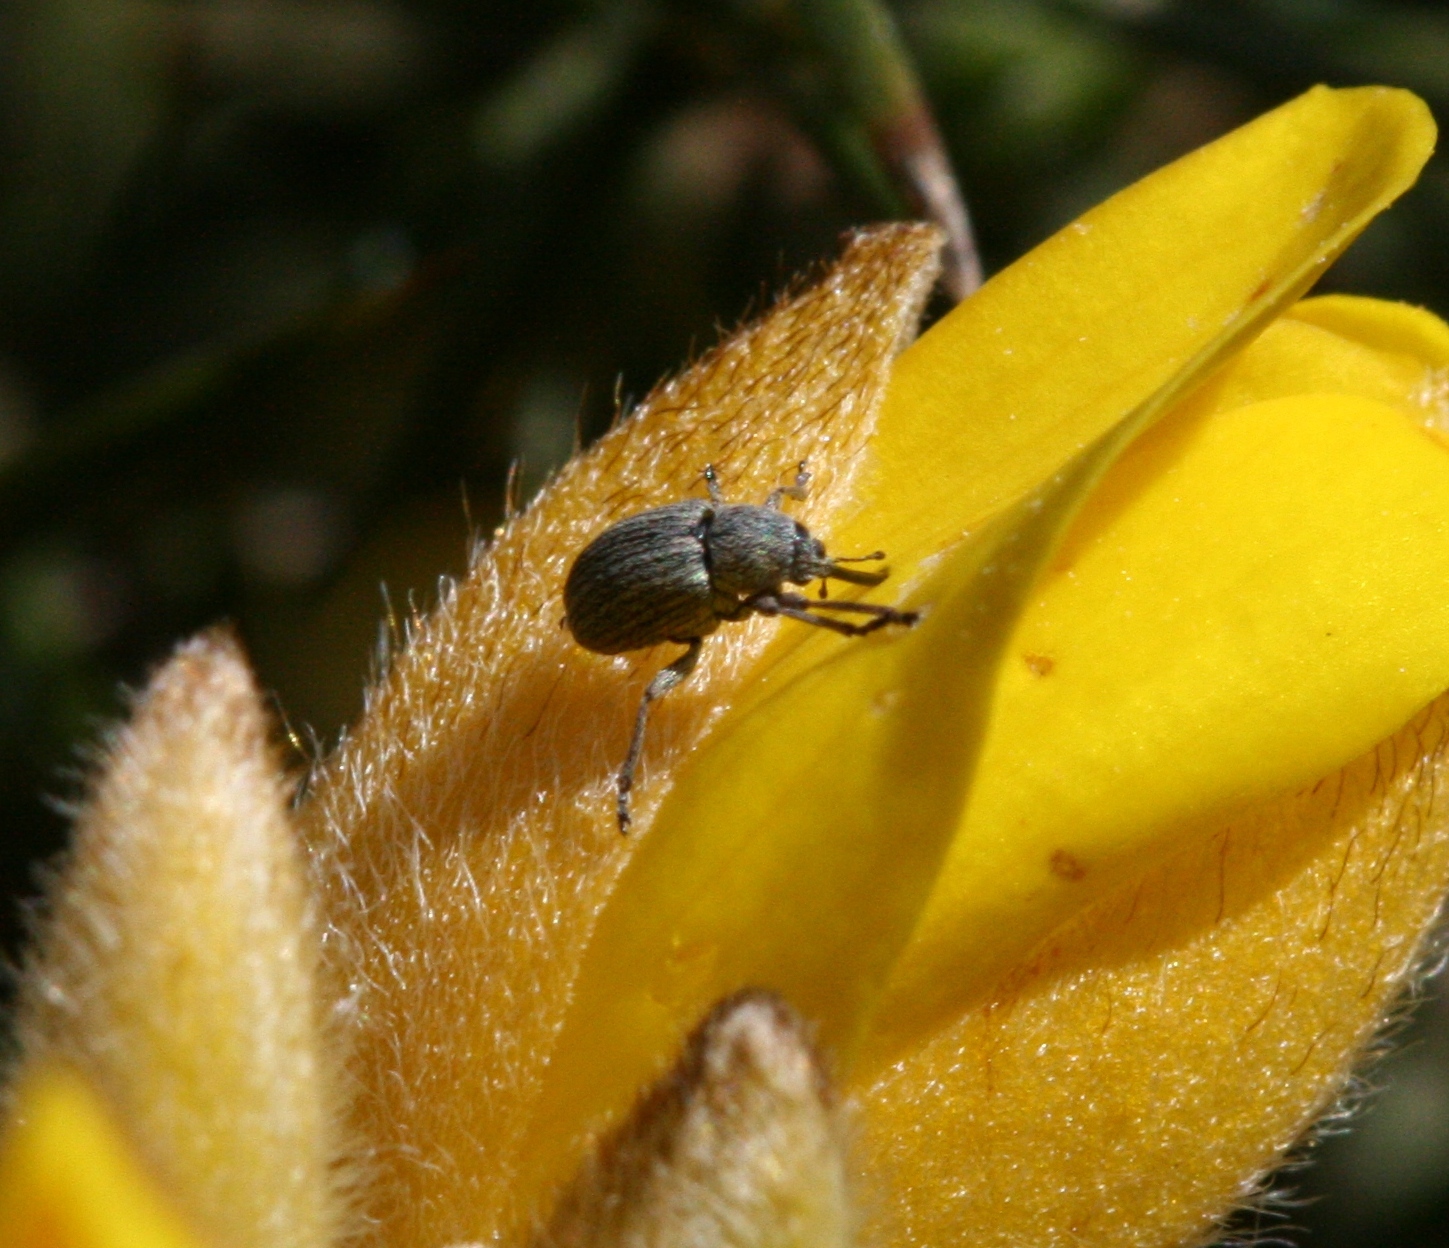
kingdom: Animalia
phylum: Arthropoda
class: Insecta
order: Coleoptera
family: Brentidae
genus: Exapion
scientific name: Exapion ulicis
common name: Gorse seed weevil
